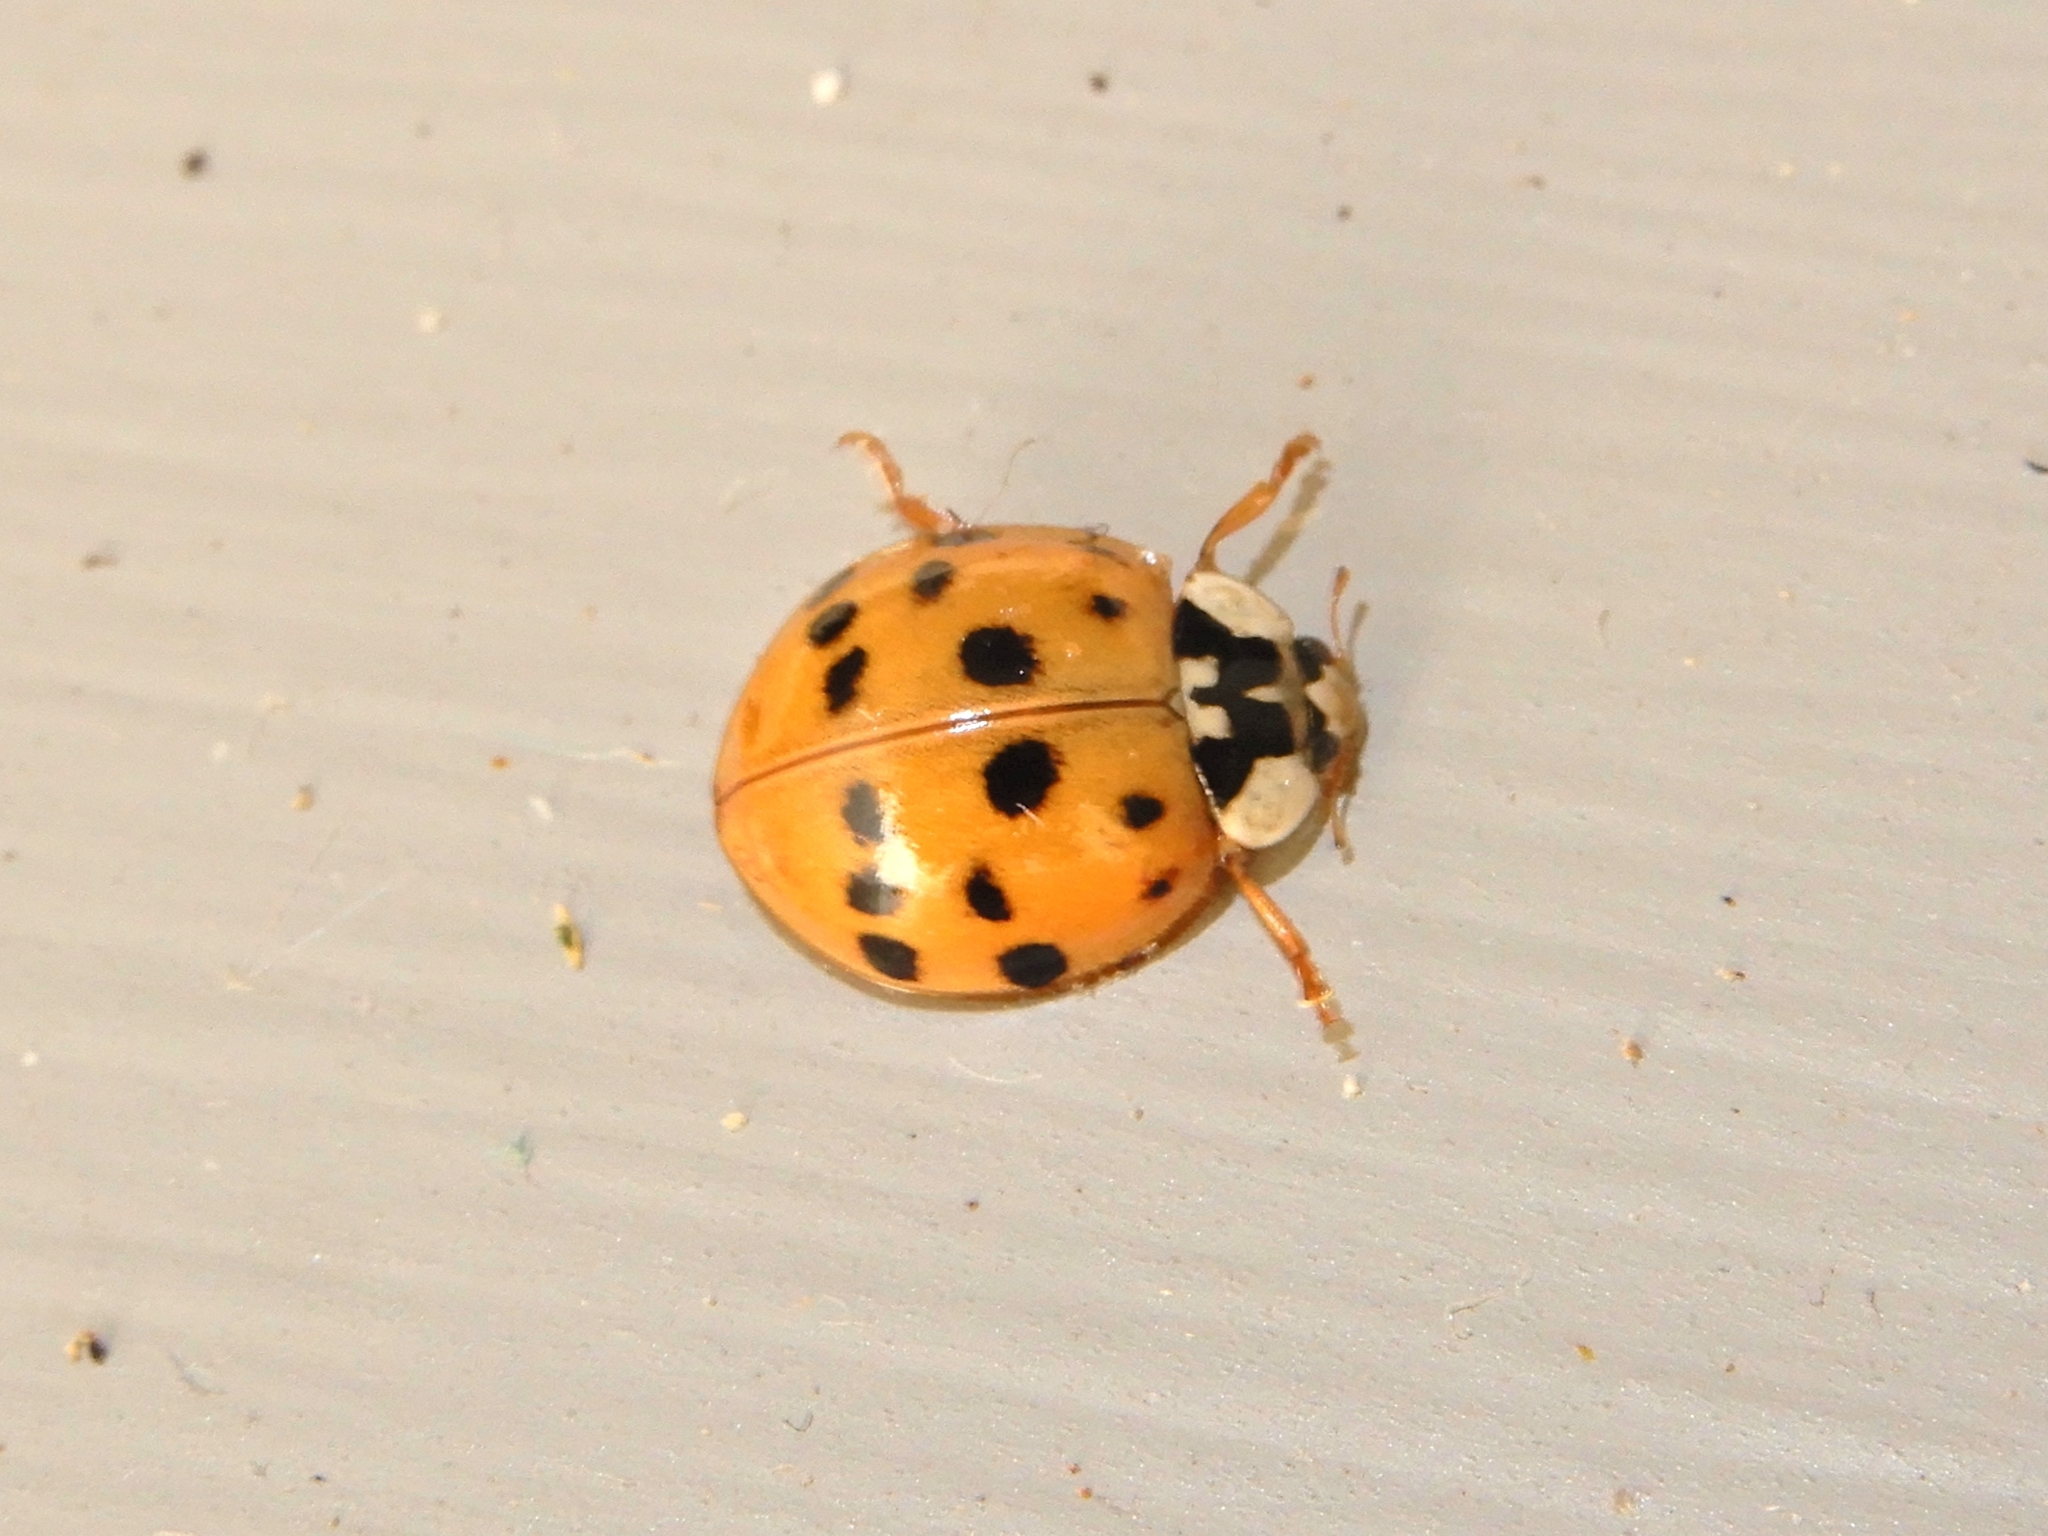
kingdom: Animalia
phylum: Arthropoda
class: Insecta
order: Coleoptera
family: Coccinellidae
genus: Harmonia
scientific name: Harmonia axyridis
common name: Harlequin ladybird
